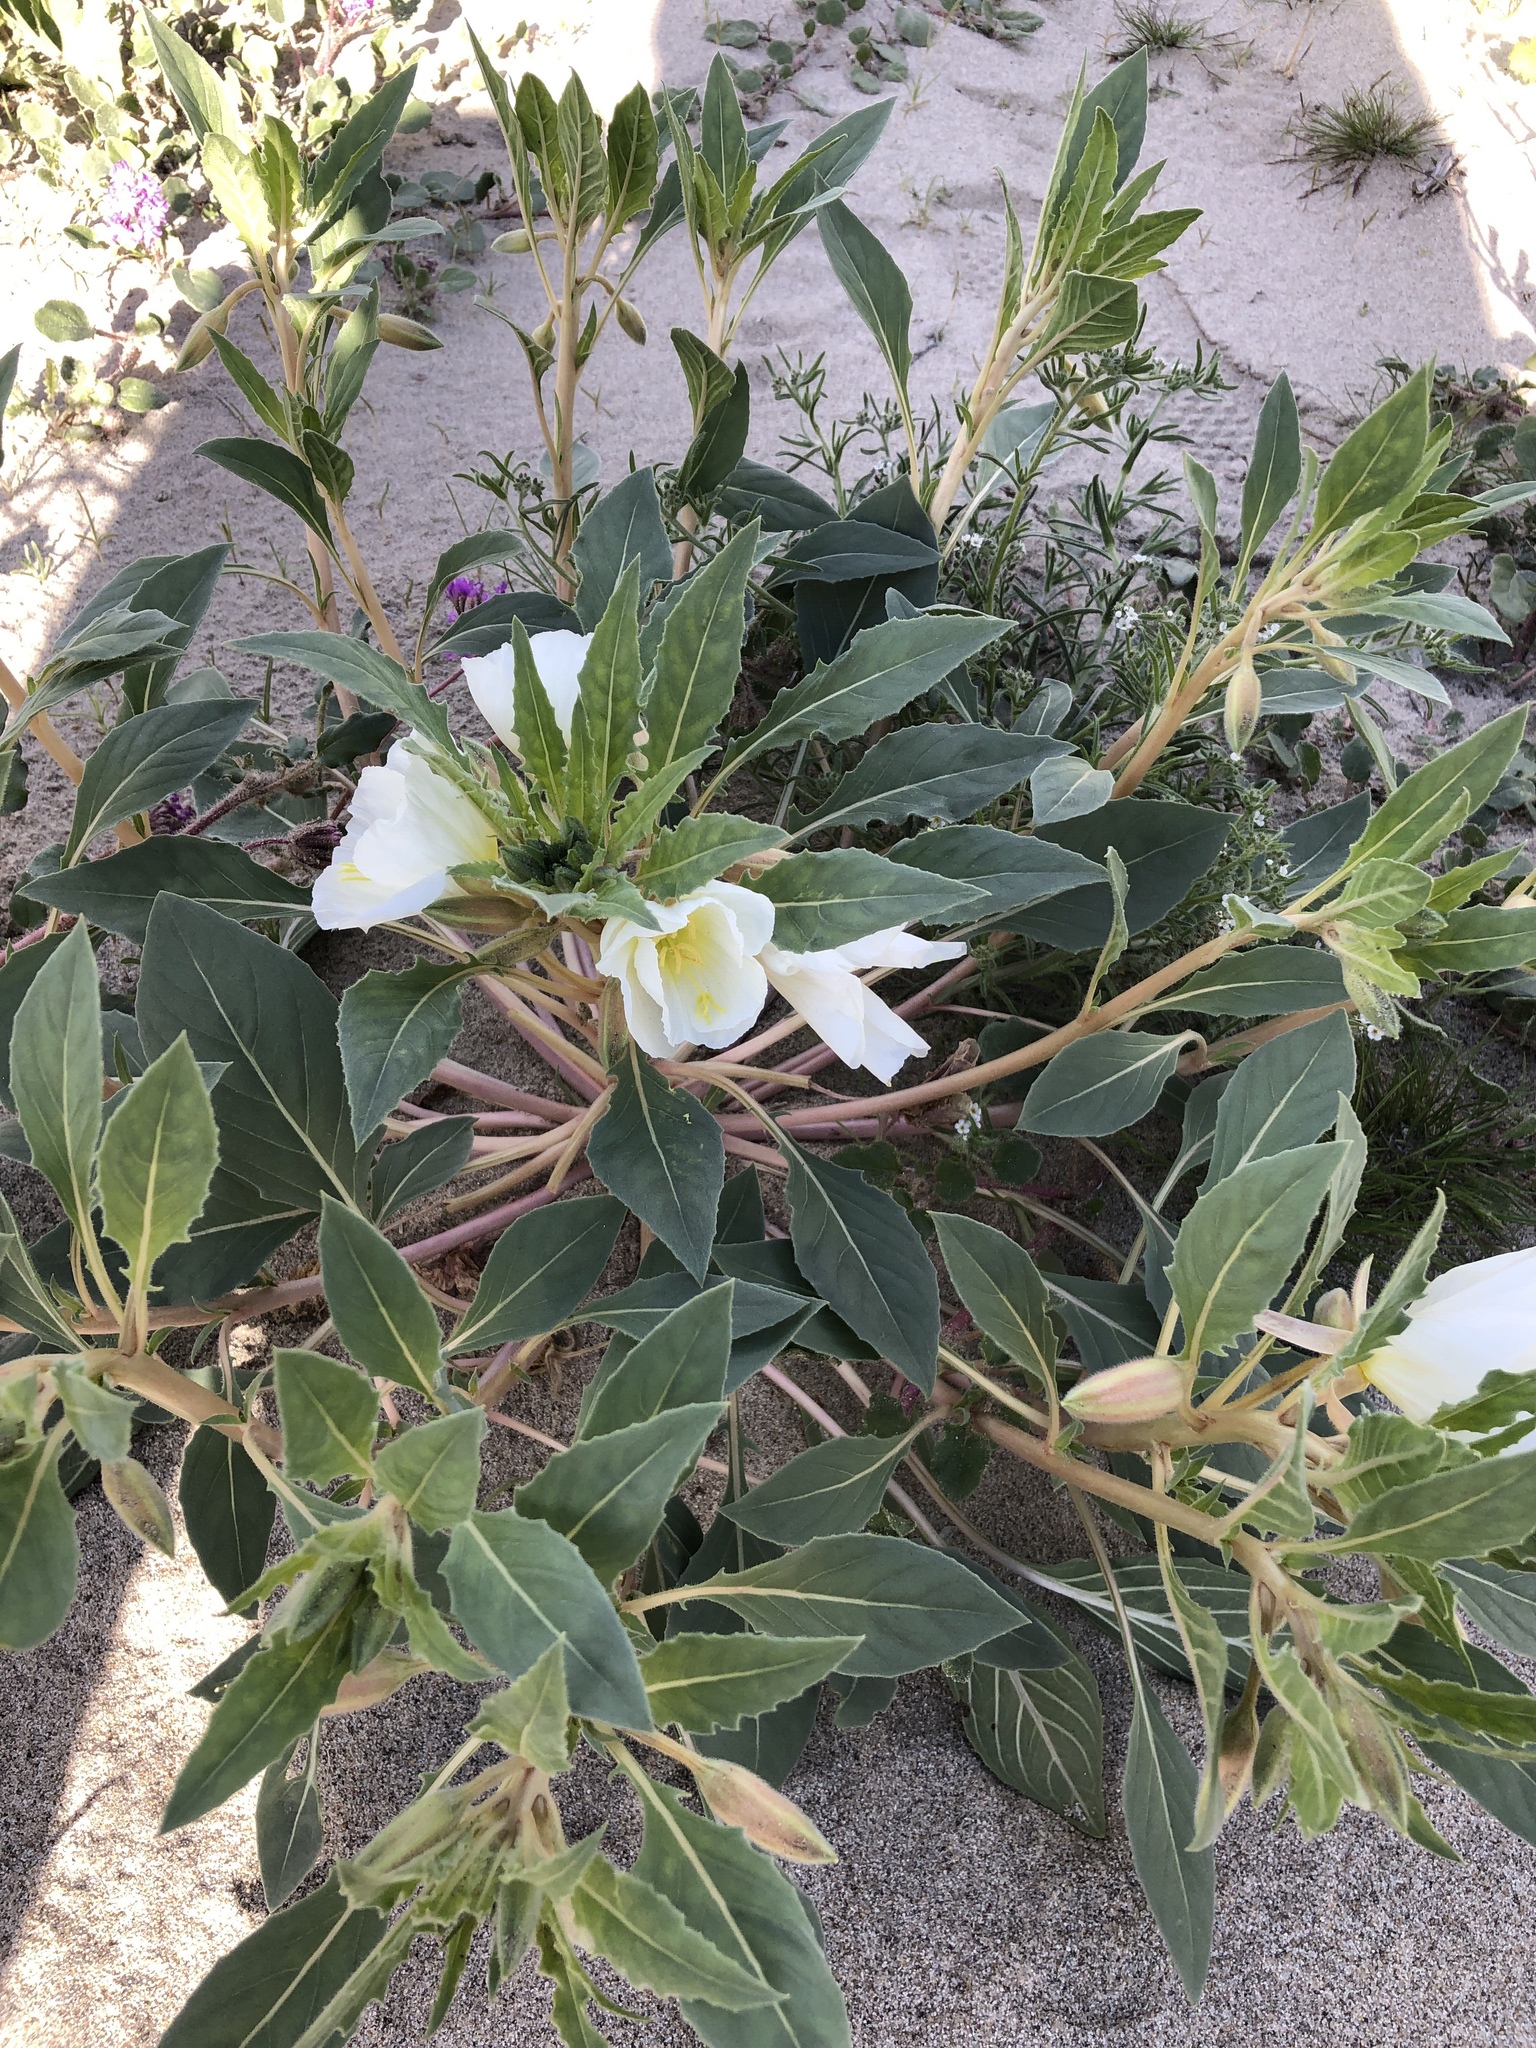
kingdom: Plantae
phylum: Tracheophyta
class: Magnoliopsida
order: Myrtales
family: Onagraceae
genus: Oenothera
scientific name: Oenothera deltoides
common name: Basket evening-primrose
